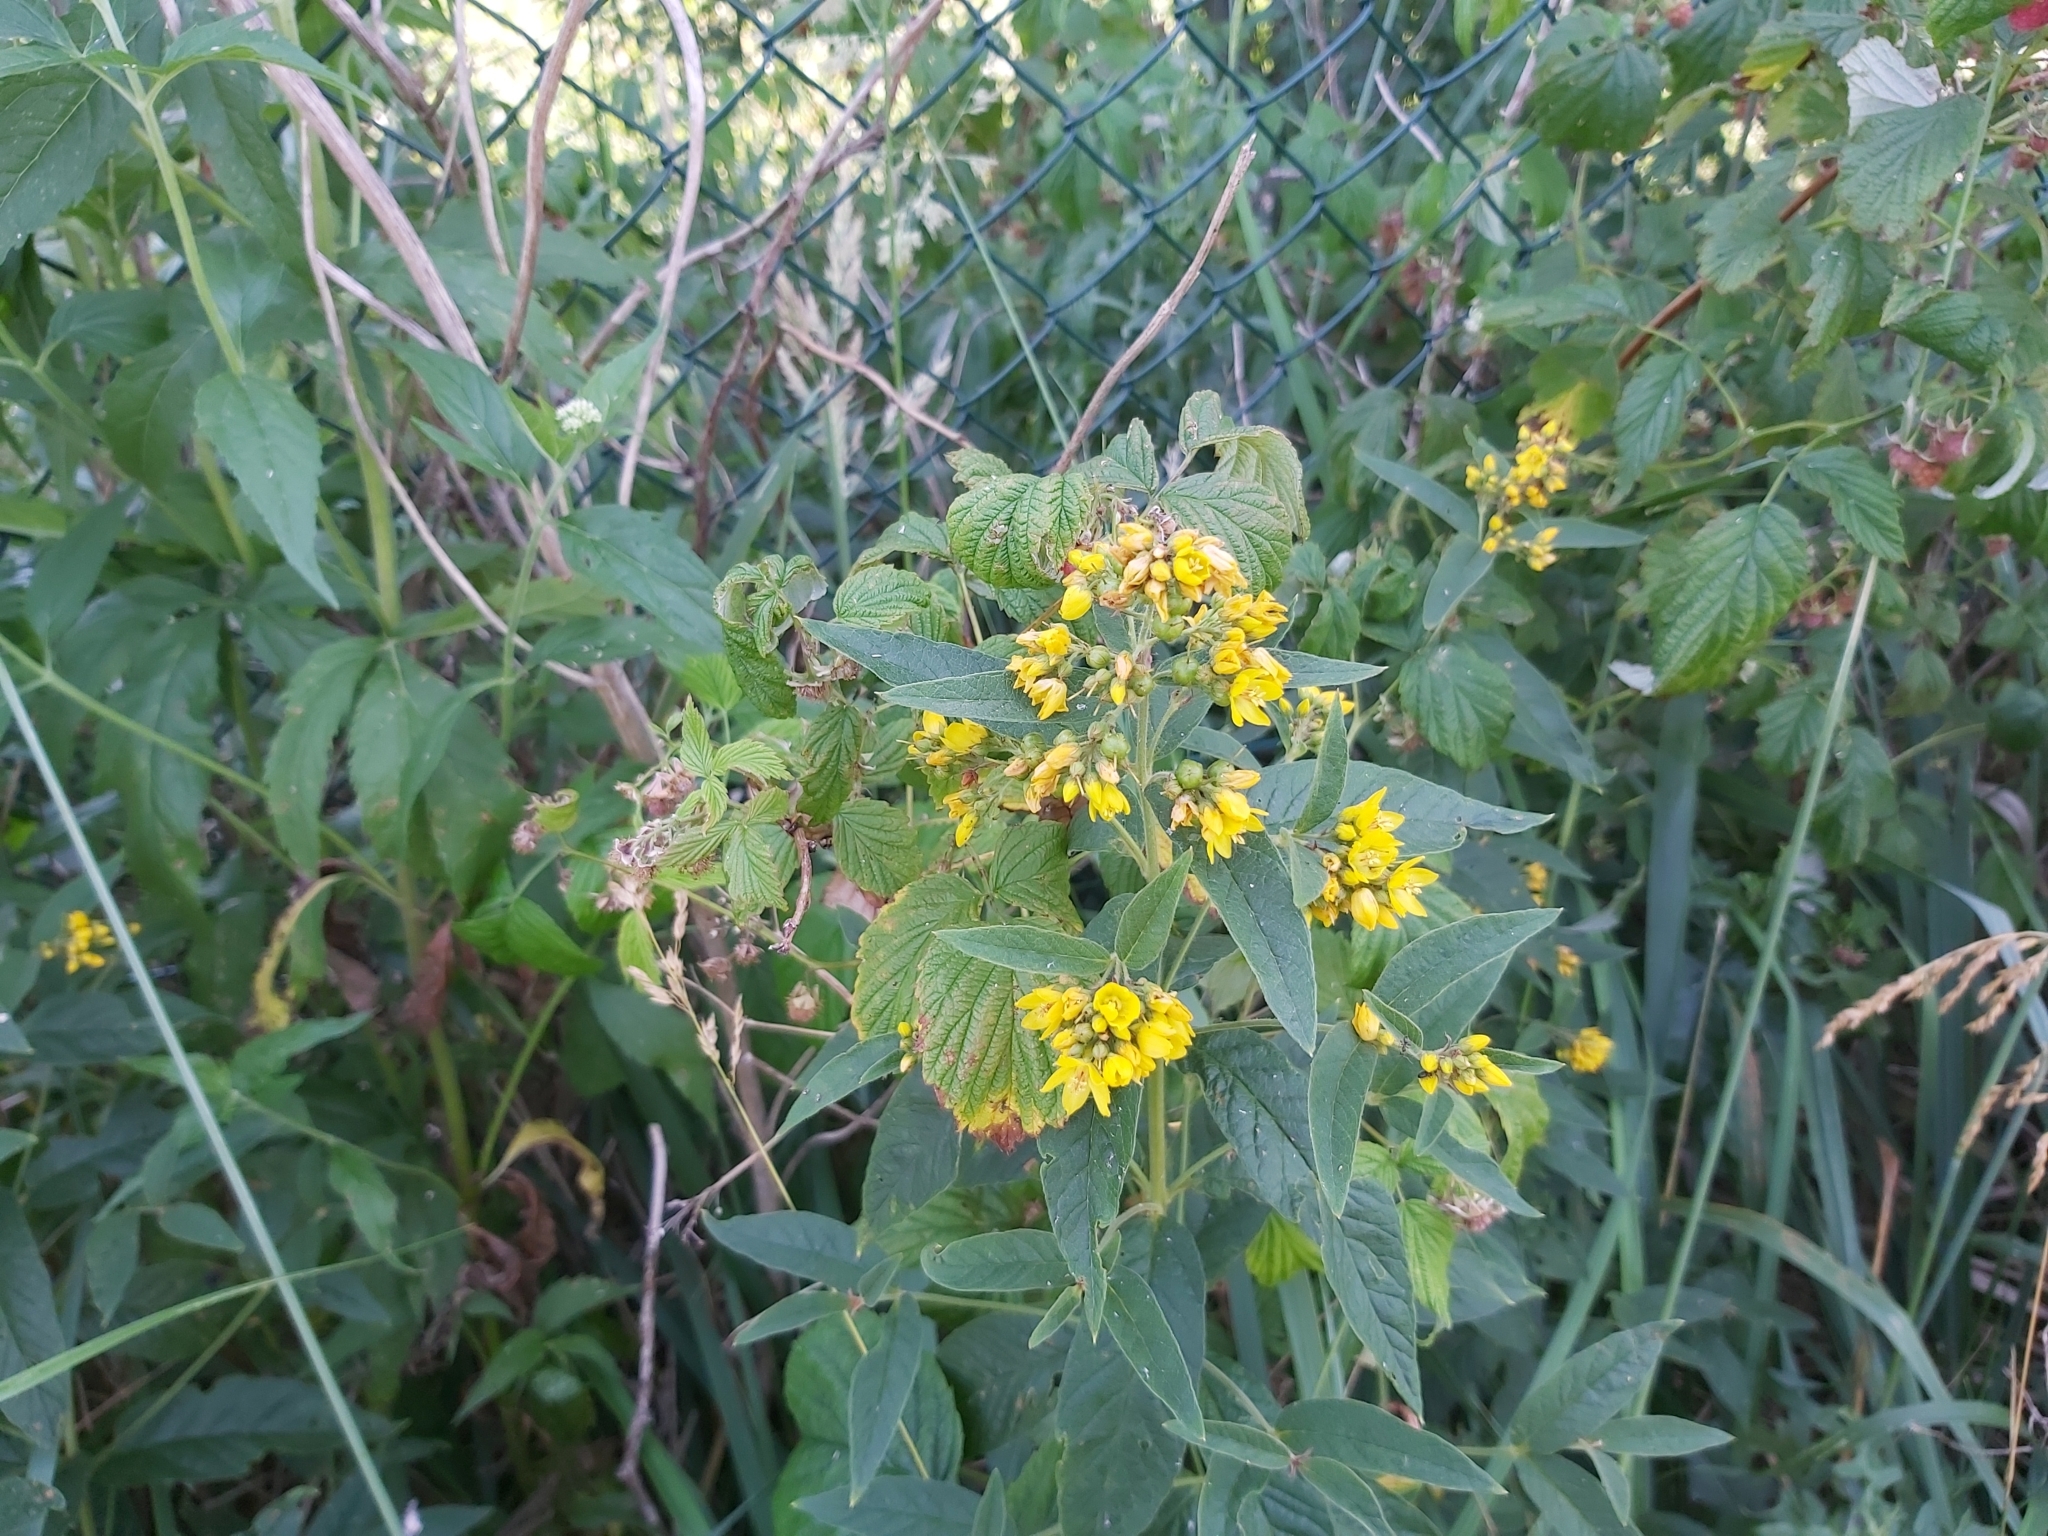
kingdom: Plantae
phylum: Tracheophyta
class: Magnoliopsida
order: Ericales
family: Primulaceae
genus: Lysimachia
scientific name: Lysimachia vulgaris
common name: Yellow loosestrife
